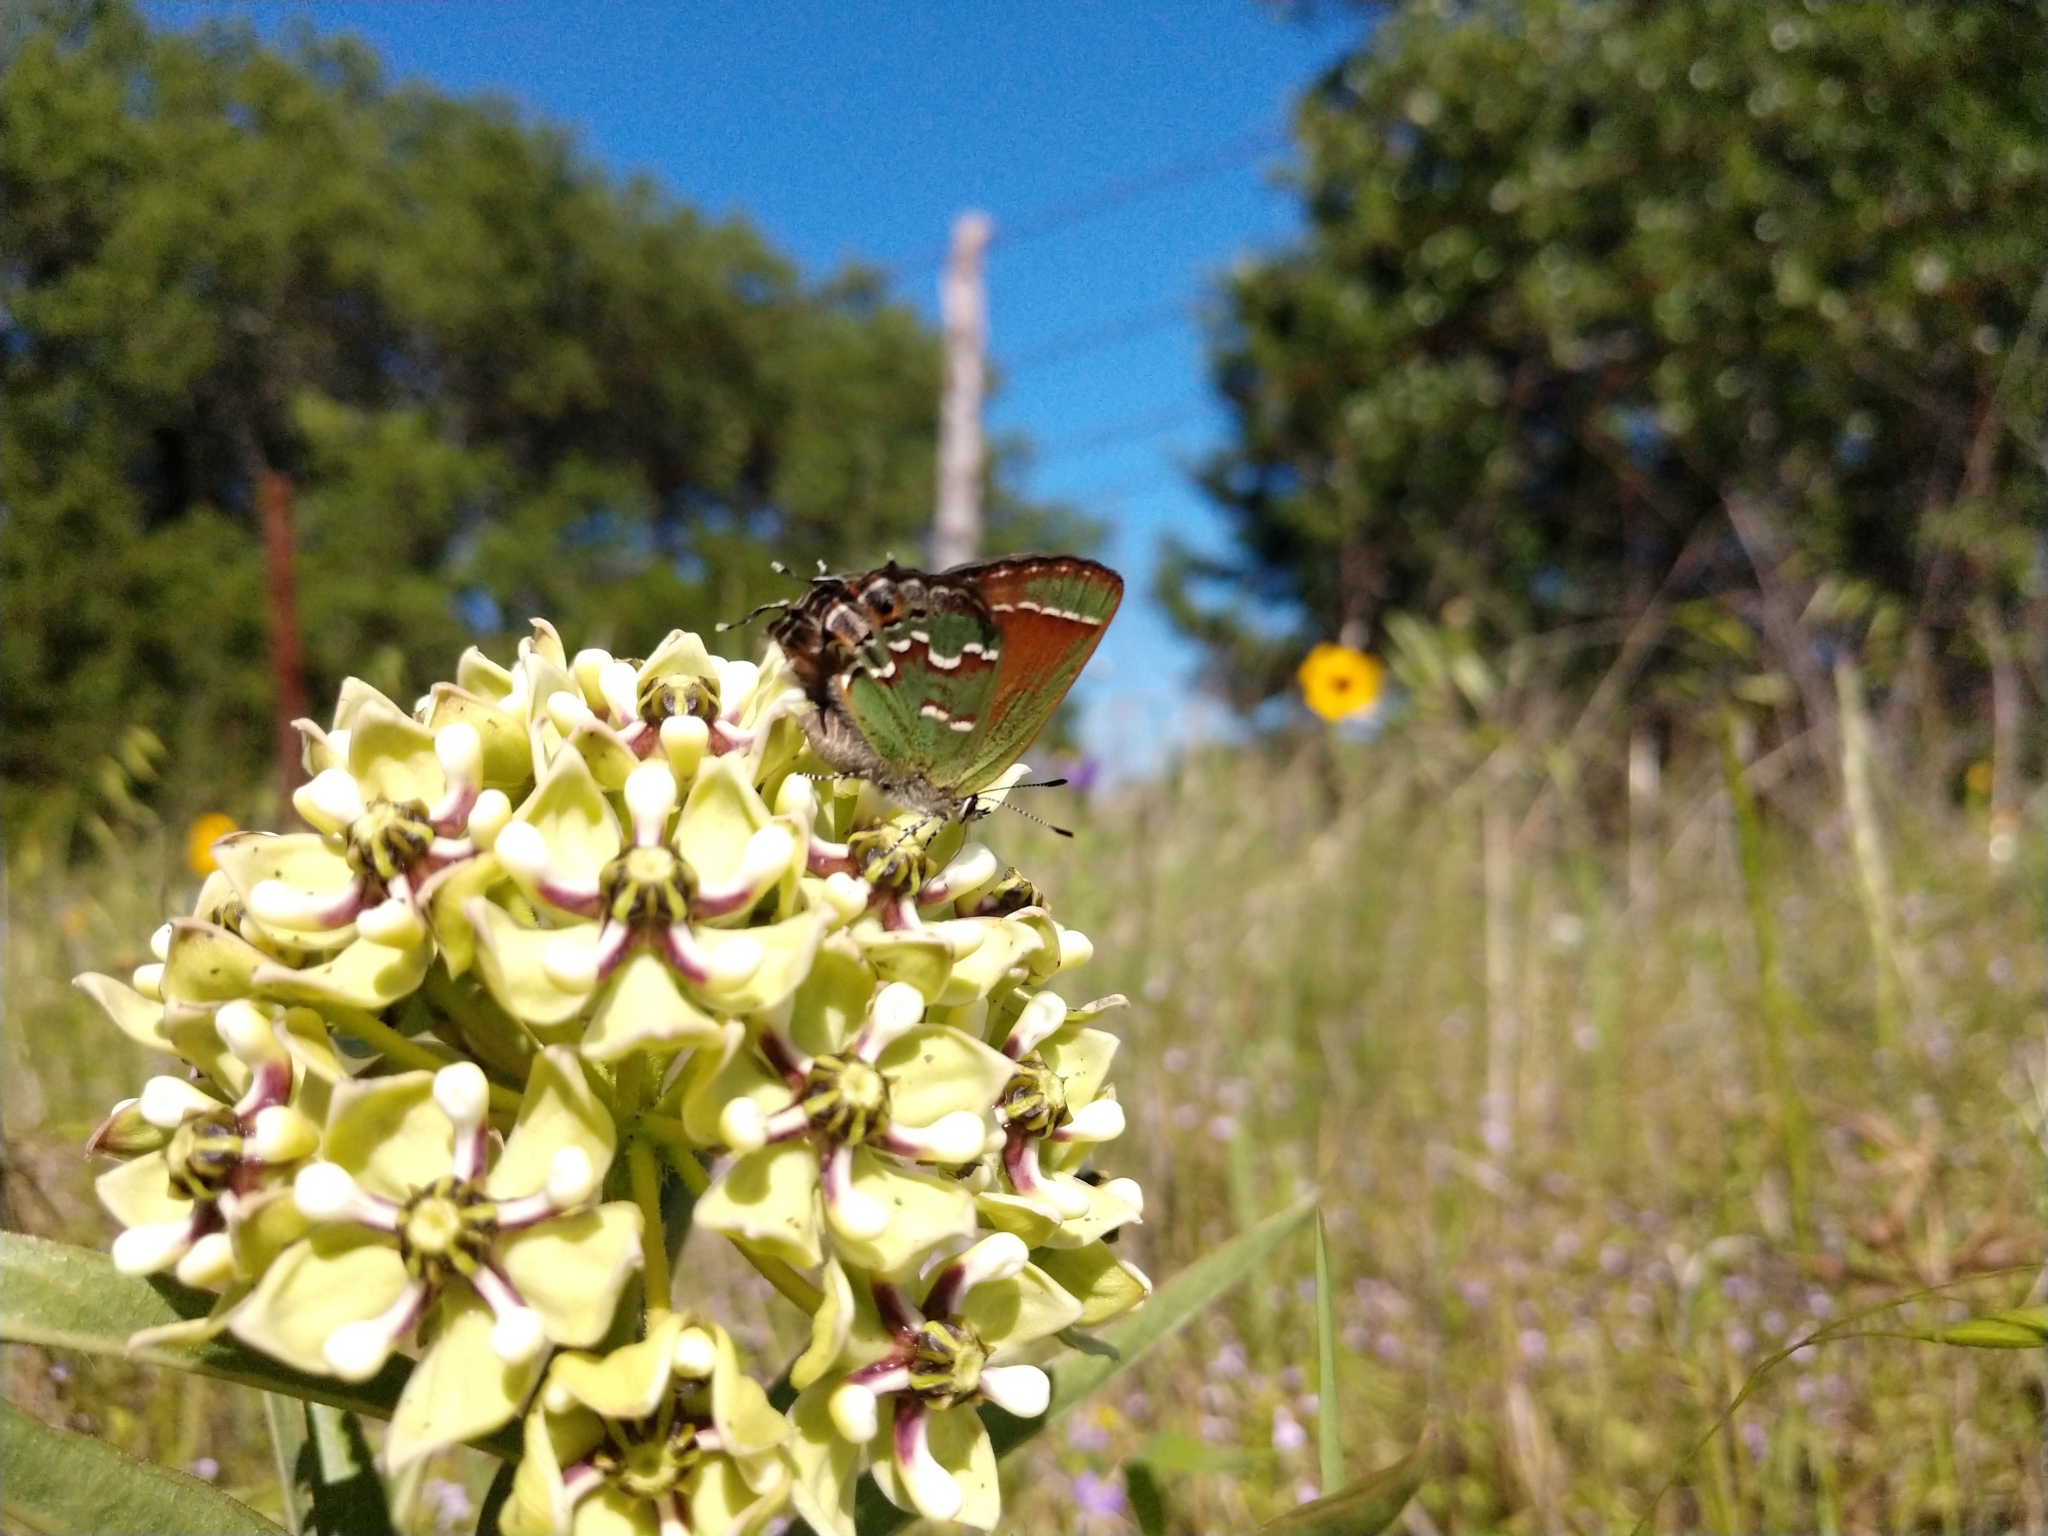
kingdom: Animalia
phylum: Arthropoda
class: Insecta
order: Lepidoptera
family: Lycaenidae
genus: Mitoura
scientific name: Mitoura gryneus
